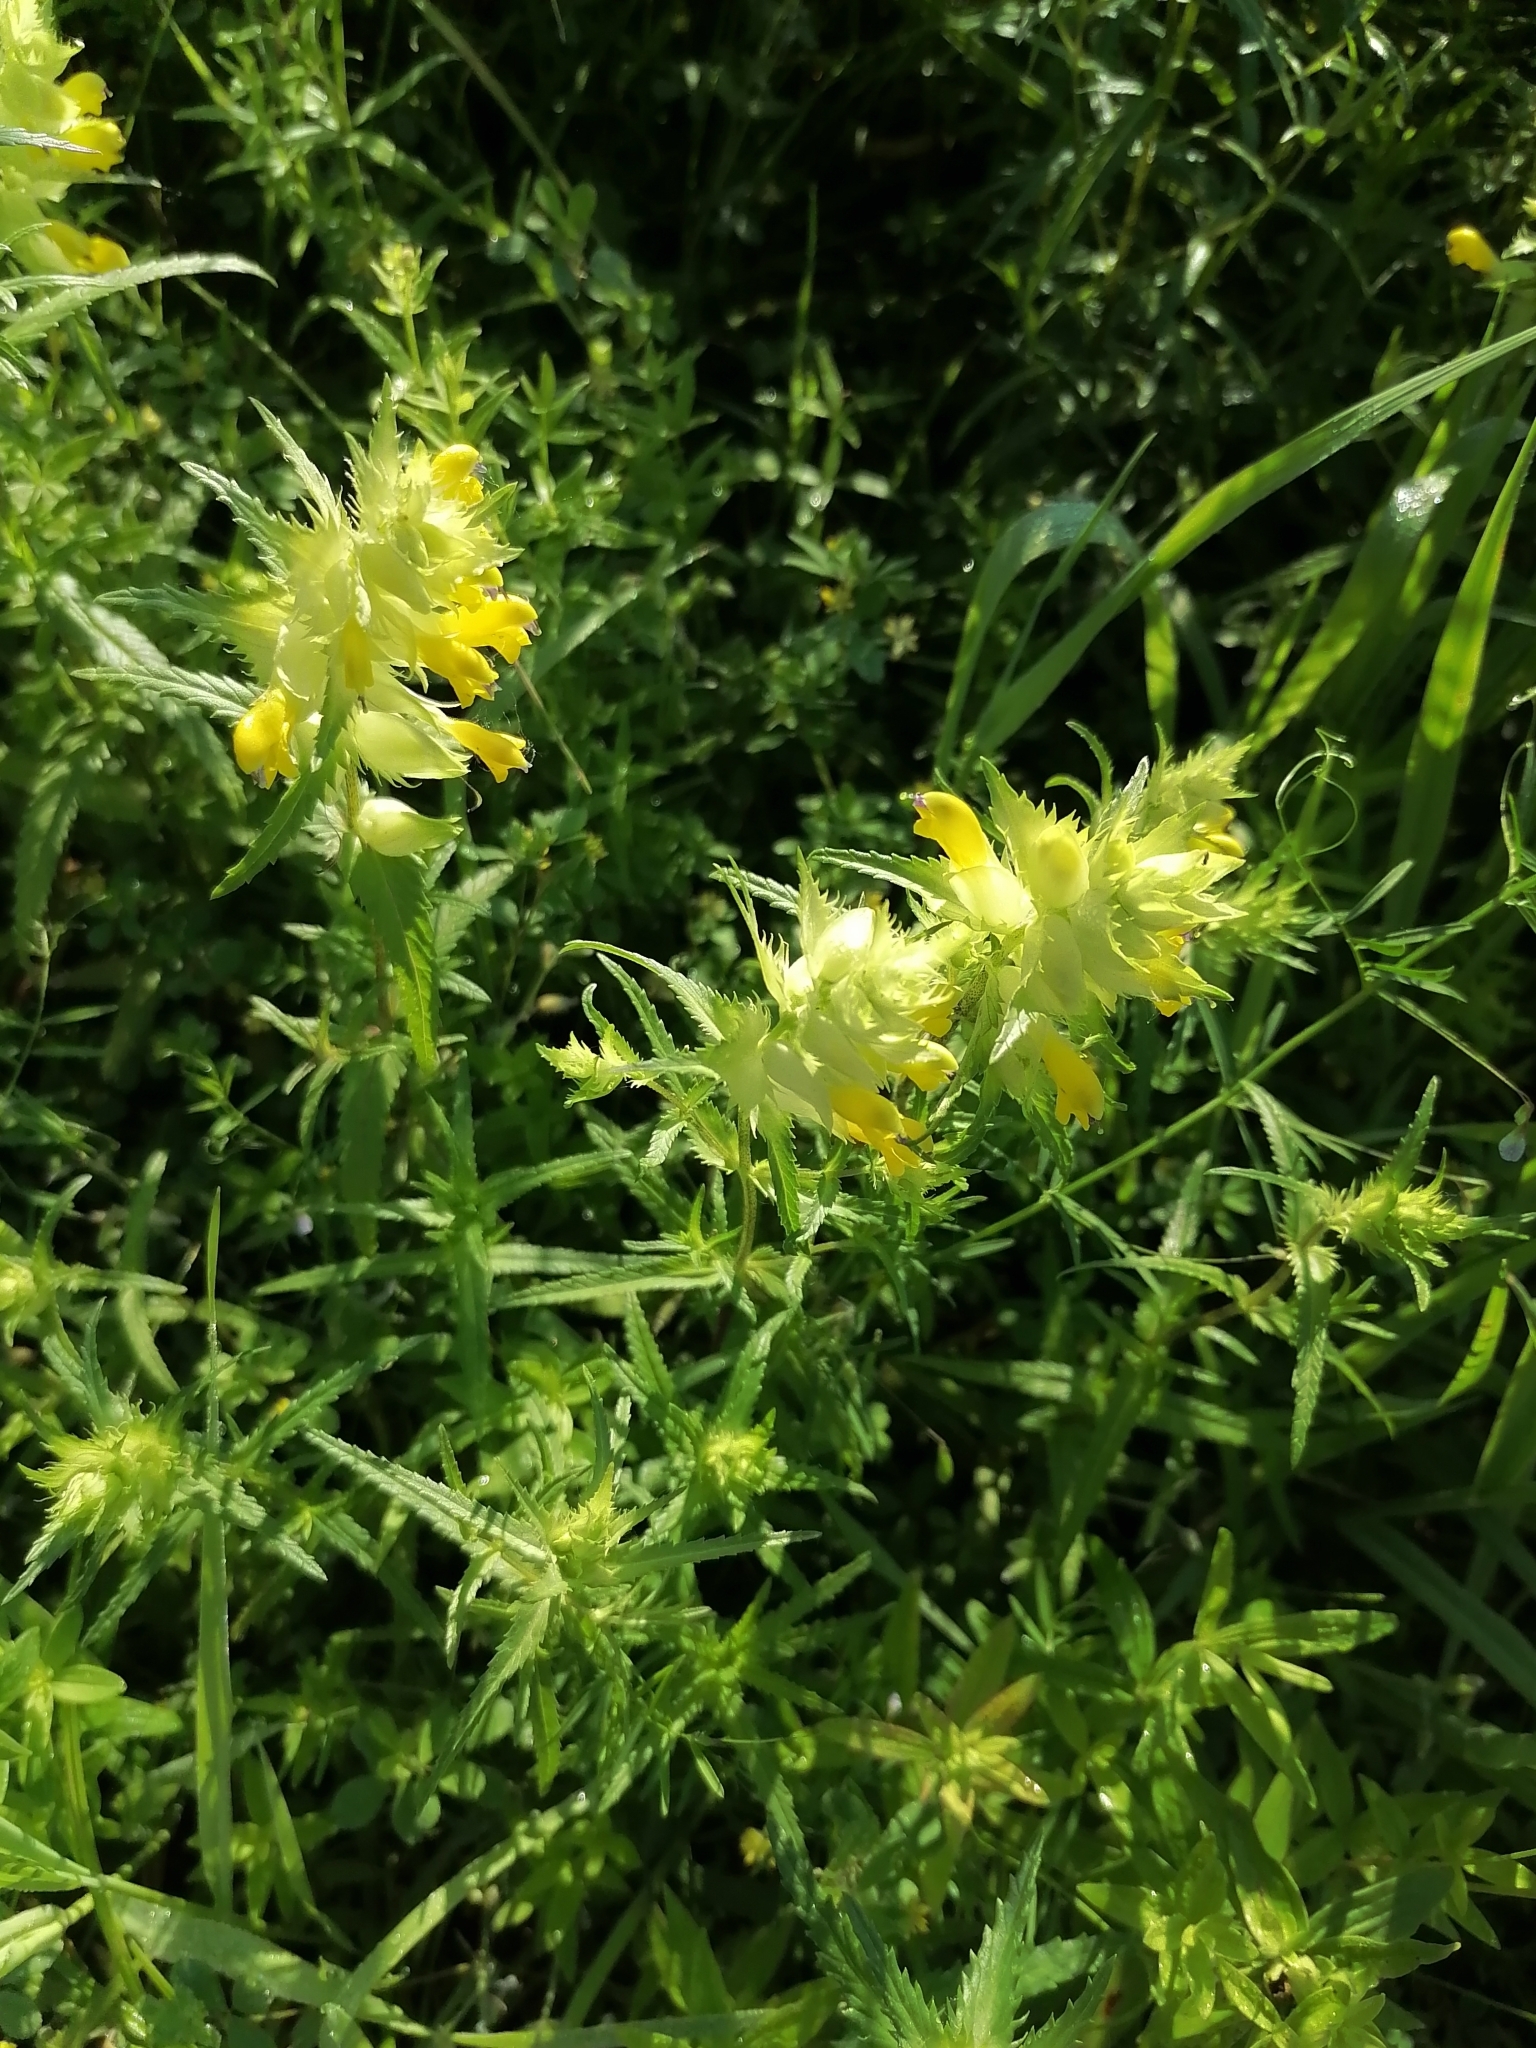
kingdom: Plantae
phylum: Tracheophyta
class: Magnoliopsida
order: Lamiales
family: Orobanchaceae
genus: Rhinanthus
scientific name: Rhinanthus serotinus
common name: Late-flowering yellow rattle
